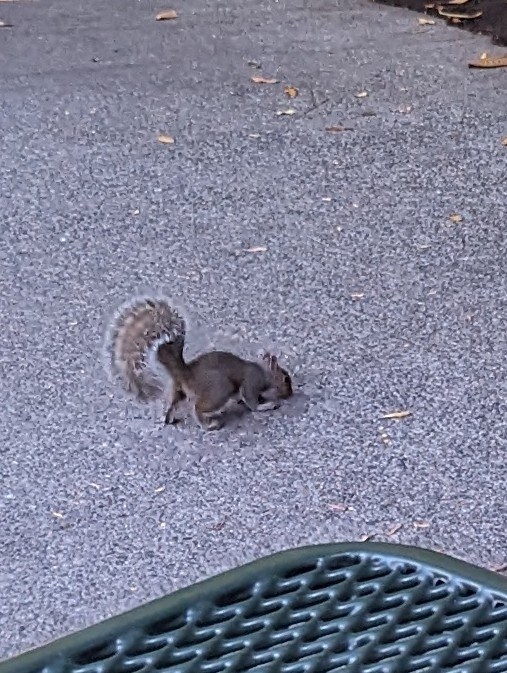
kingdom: Animalia
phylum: Chordata
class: Mammalia
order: Rodentia
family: Sciuridae
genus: Sciurus
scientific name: Sciurus carolinensis
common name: Eastern gray squirrel
